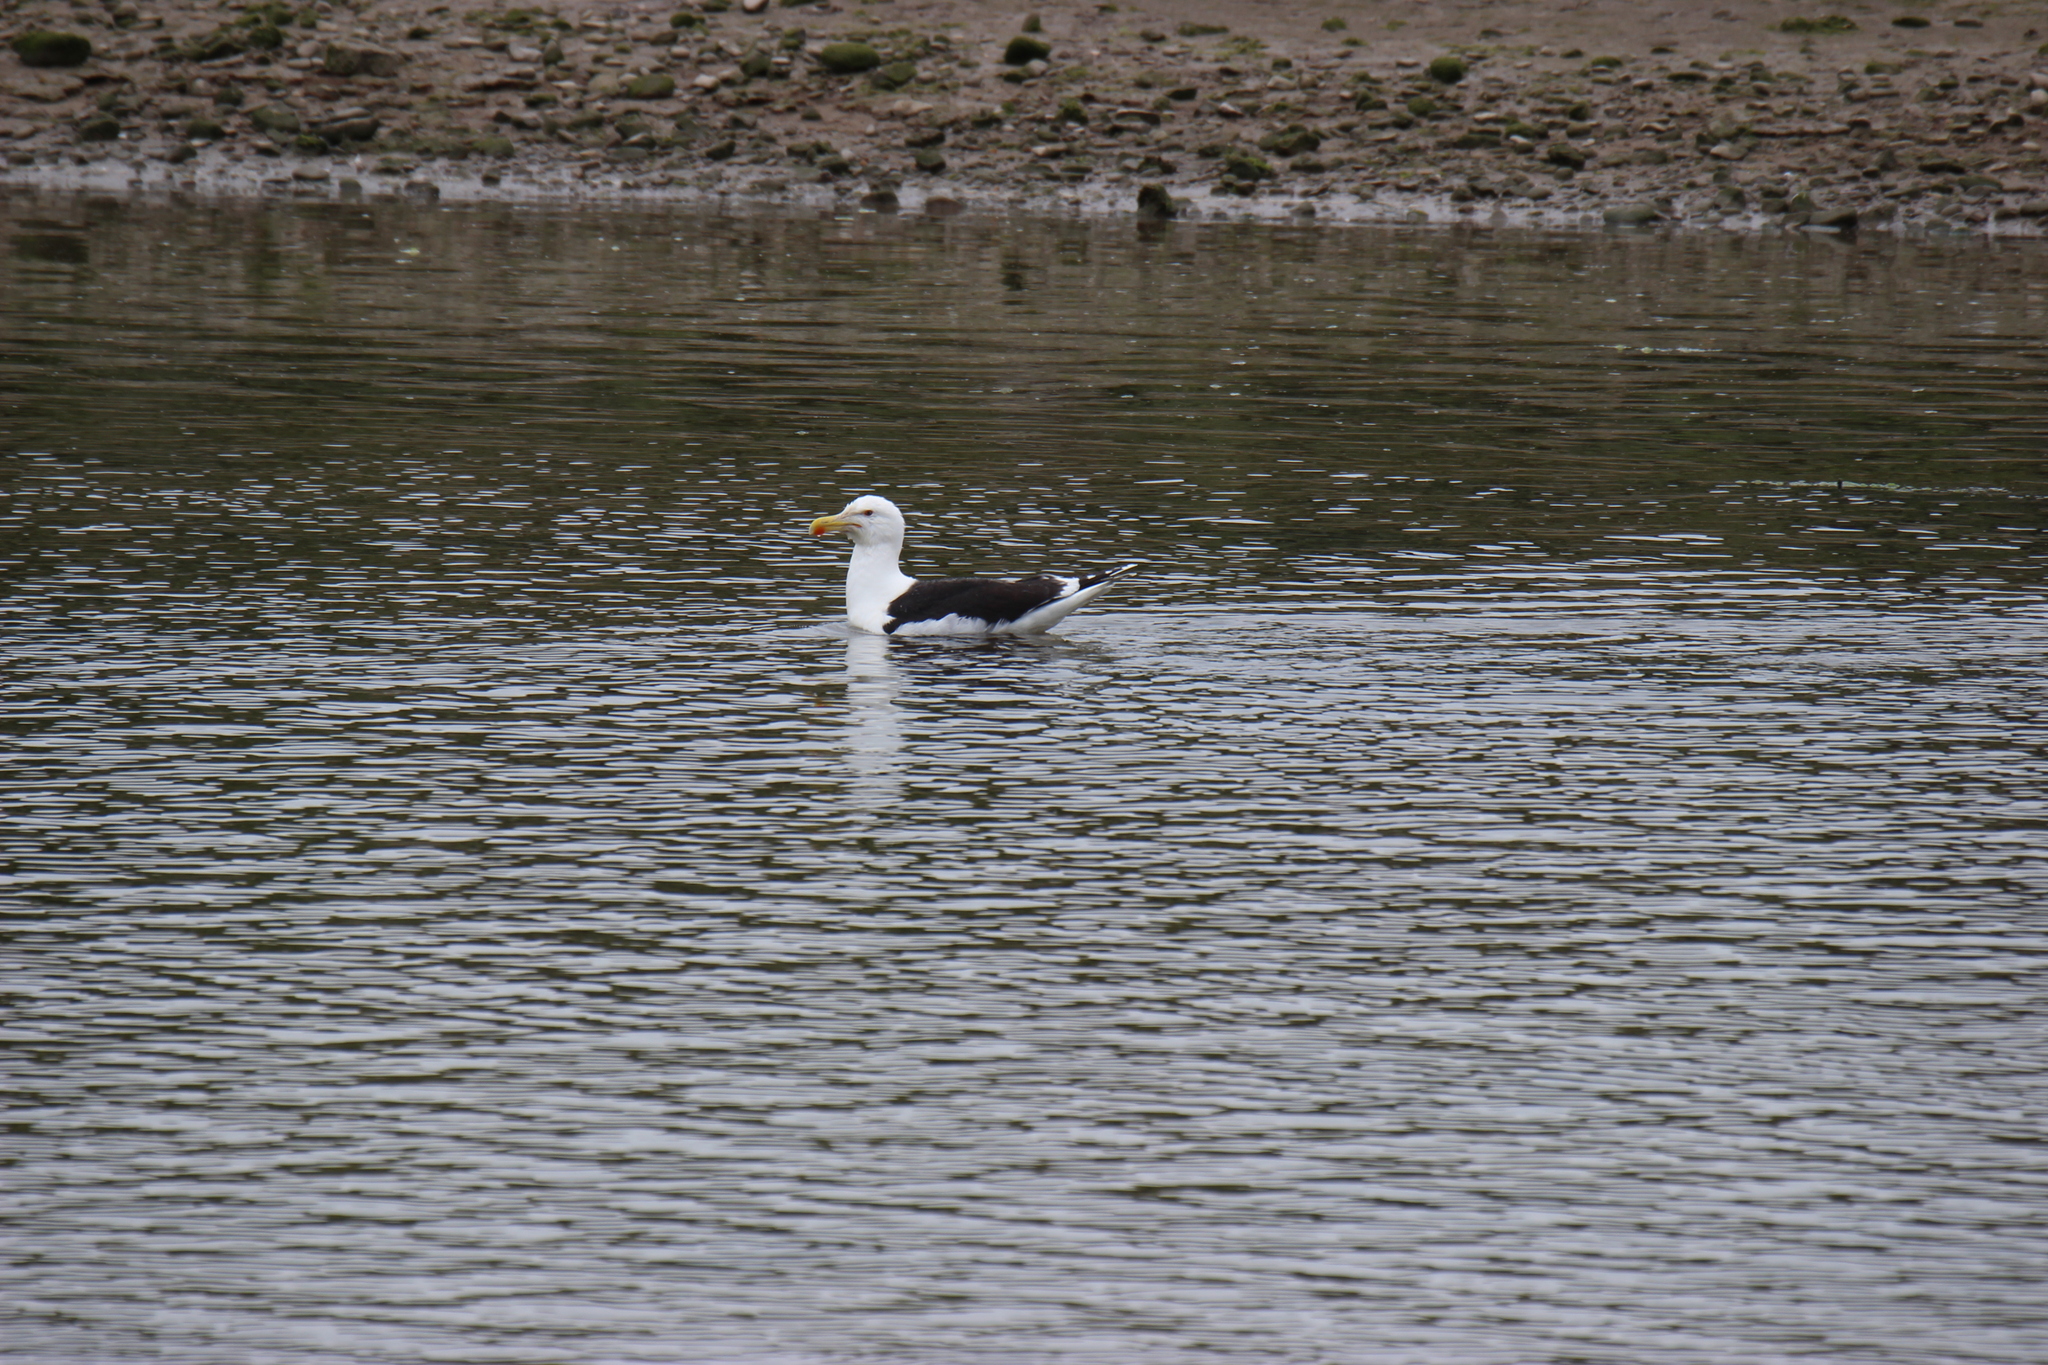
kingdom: Animalia
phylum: Chordata
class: Aves
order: Charadriiformes
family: Laridae
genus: Larus
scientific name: Larus marinus
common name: Great black-backed gull
